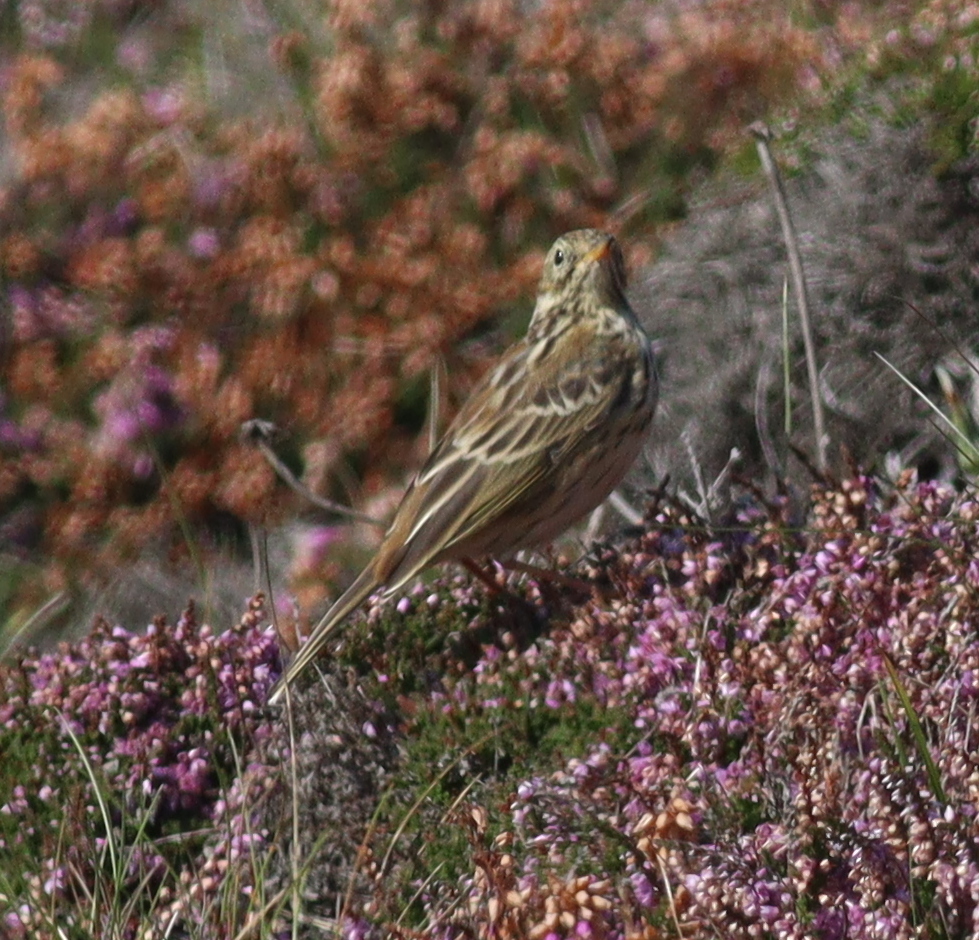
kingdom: Animalia
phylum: Chordata
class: Aves
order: Passeriformes
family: Motacillidae
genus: Anthus
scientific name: Anthus pratensis
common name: Meadow pipit
